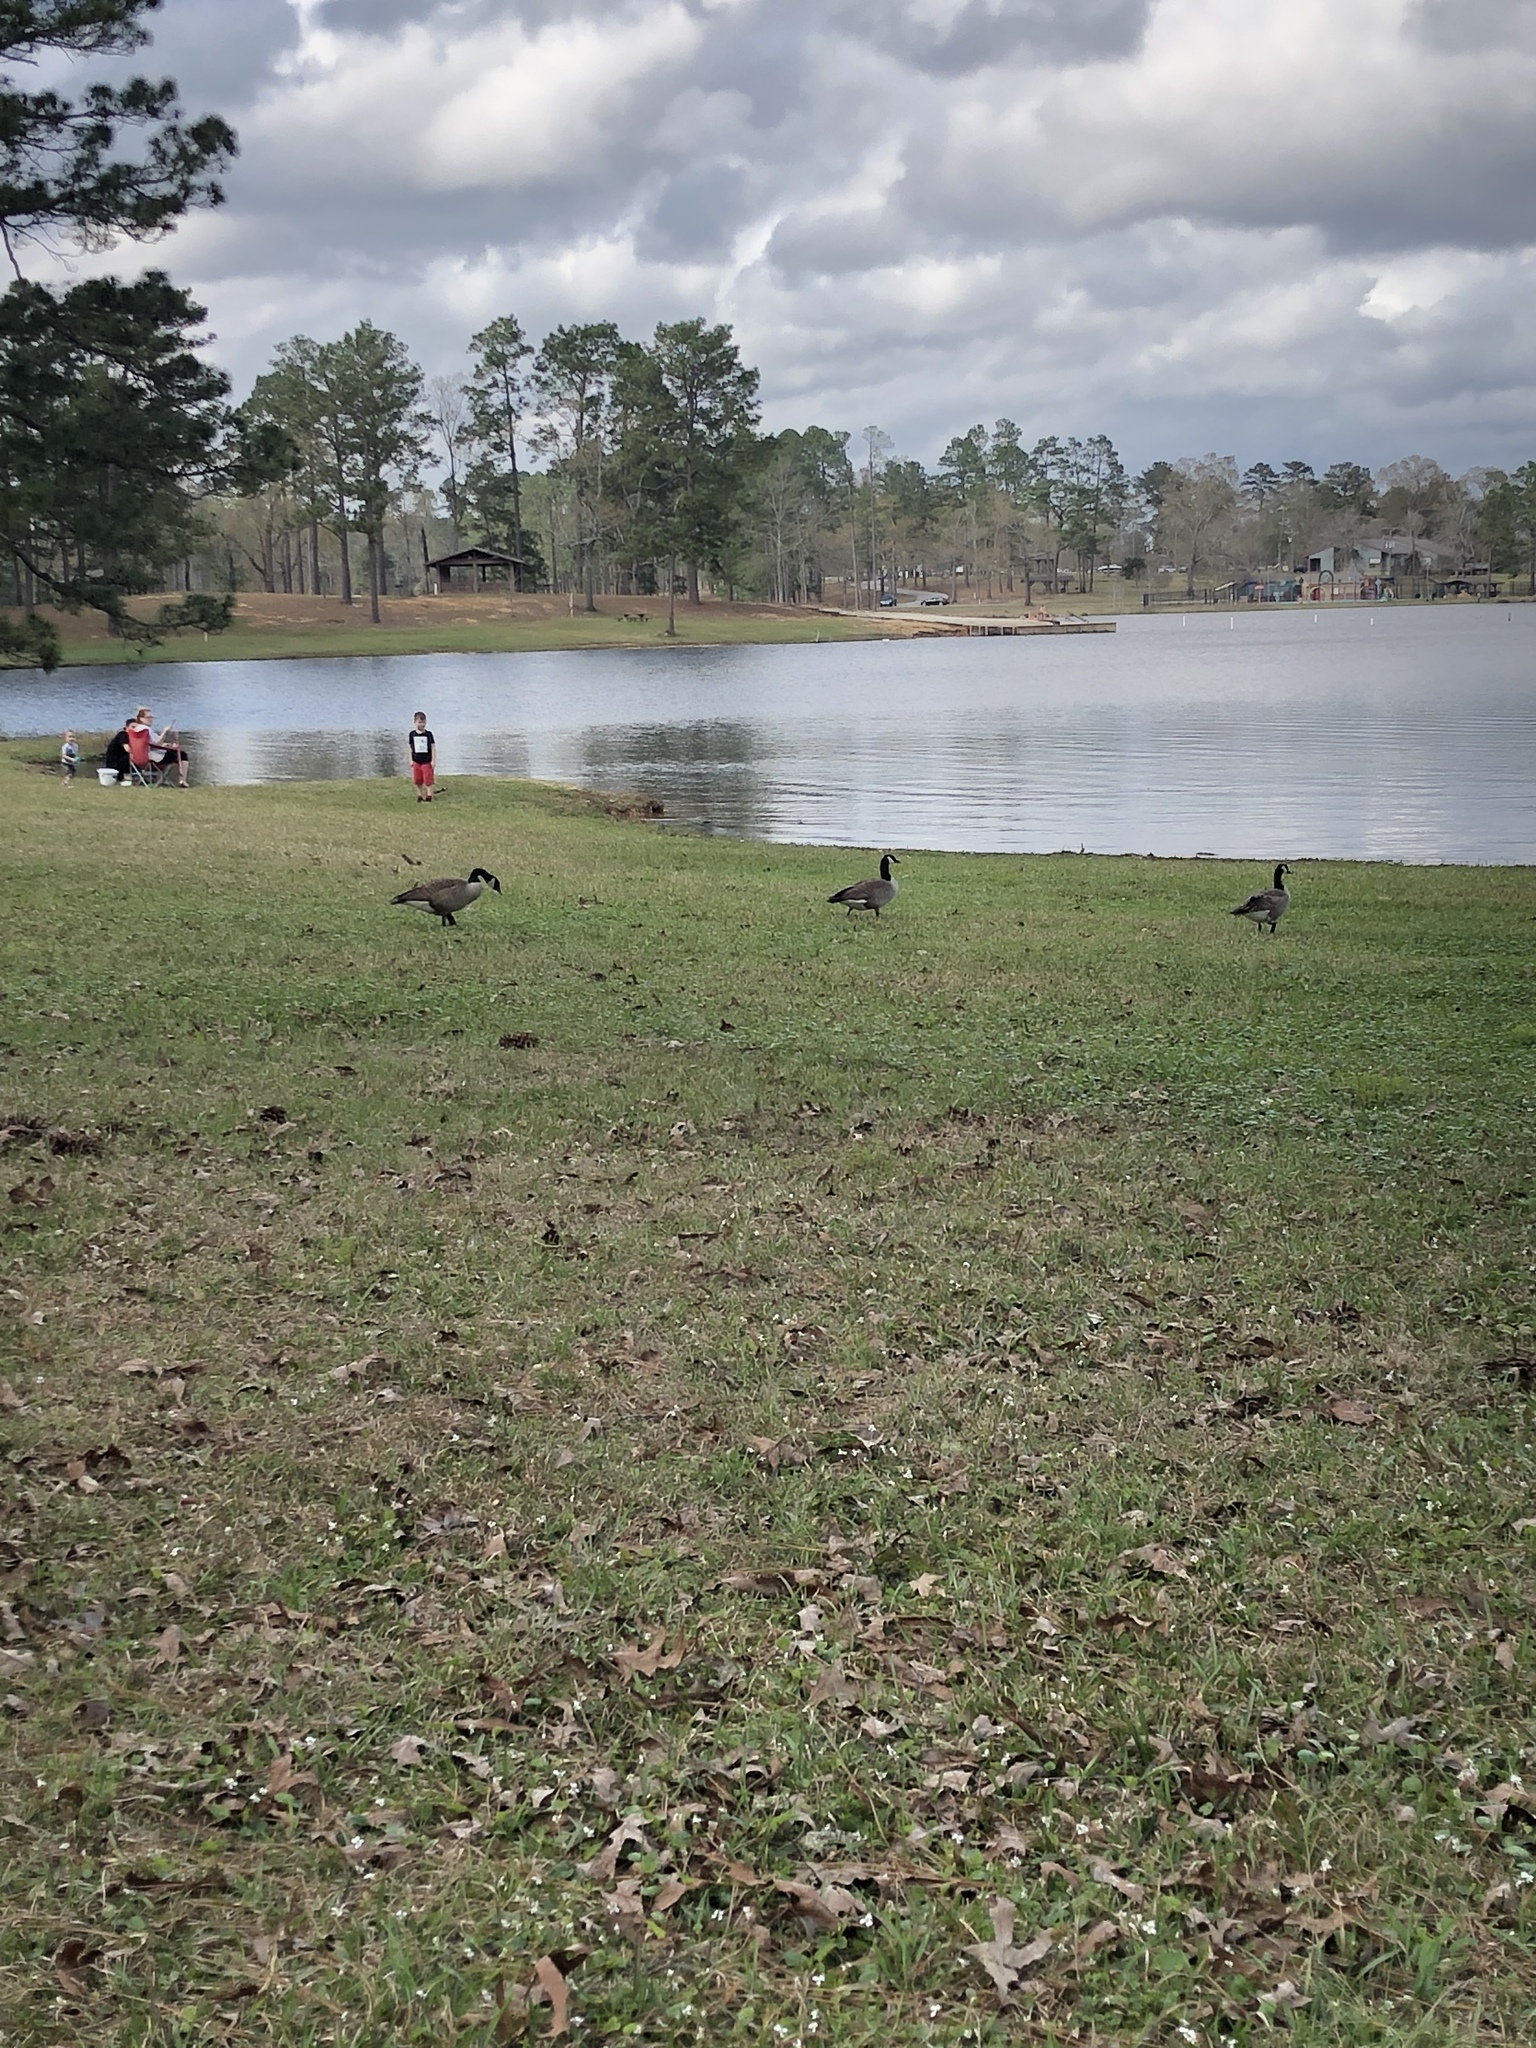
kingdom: Animalia
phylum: Chordata
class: Aves
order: Anseriformes
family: Anatidae
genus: Branta
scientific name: Branta canadensis
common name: Canada goose
